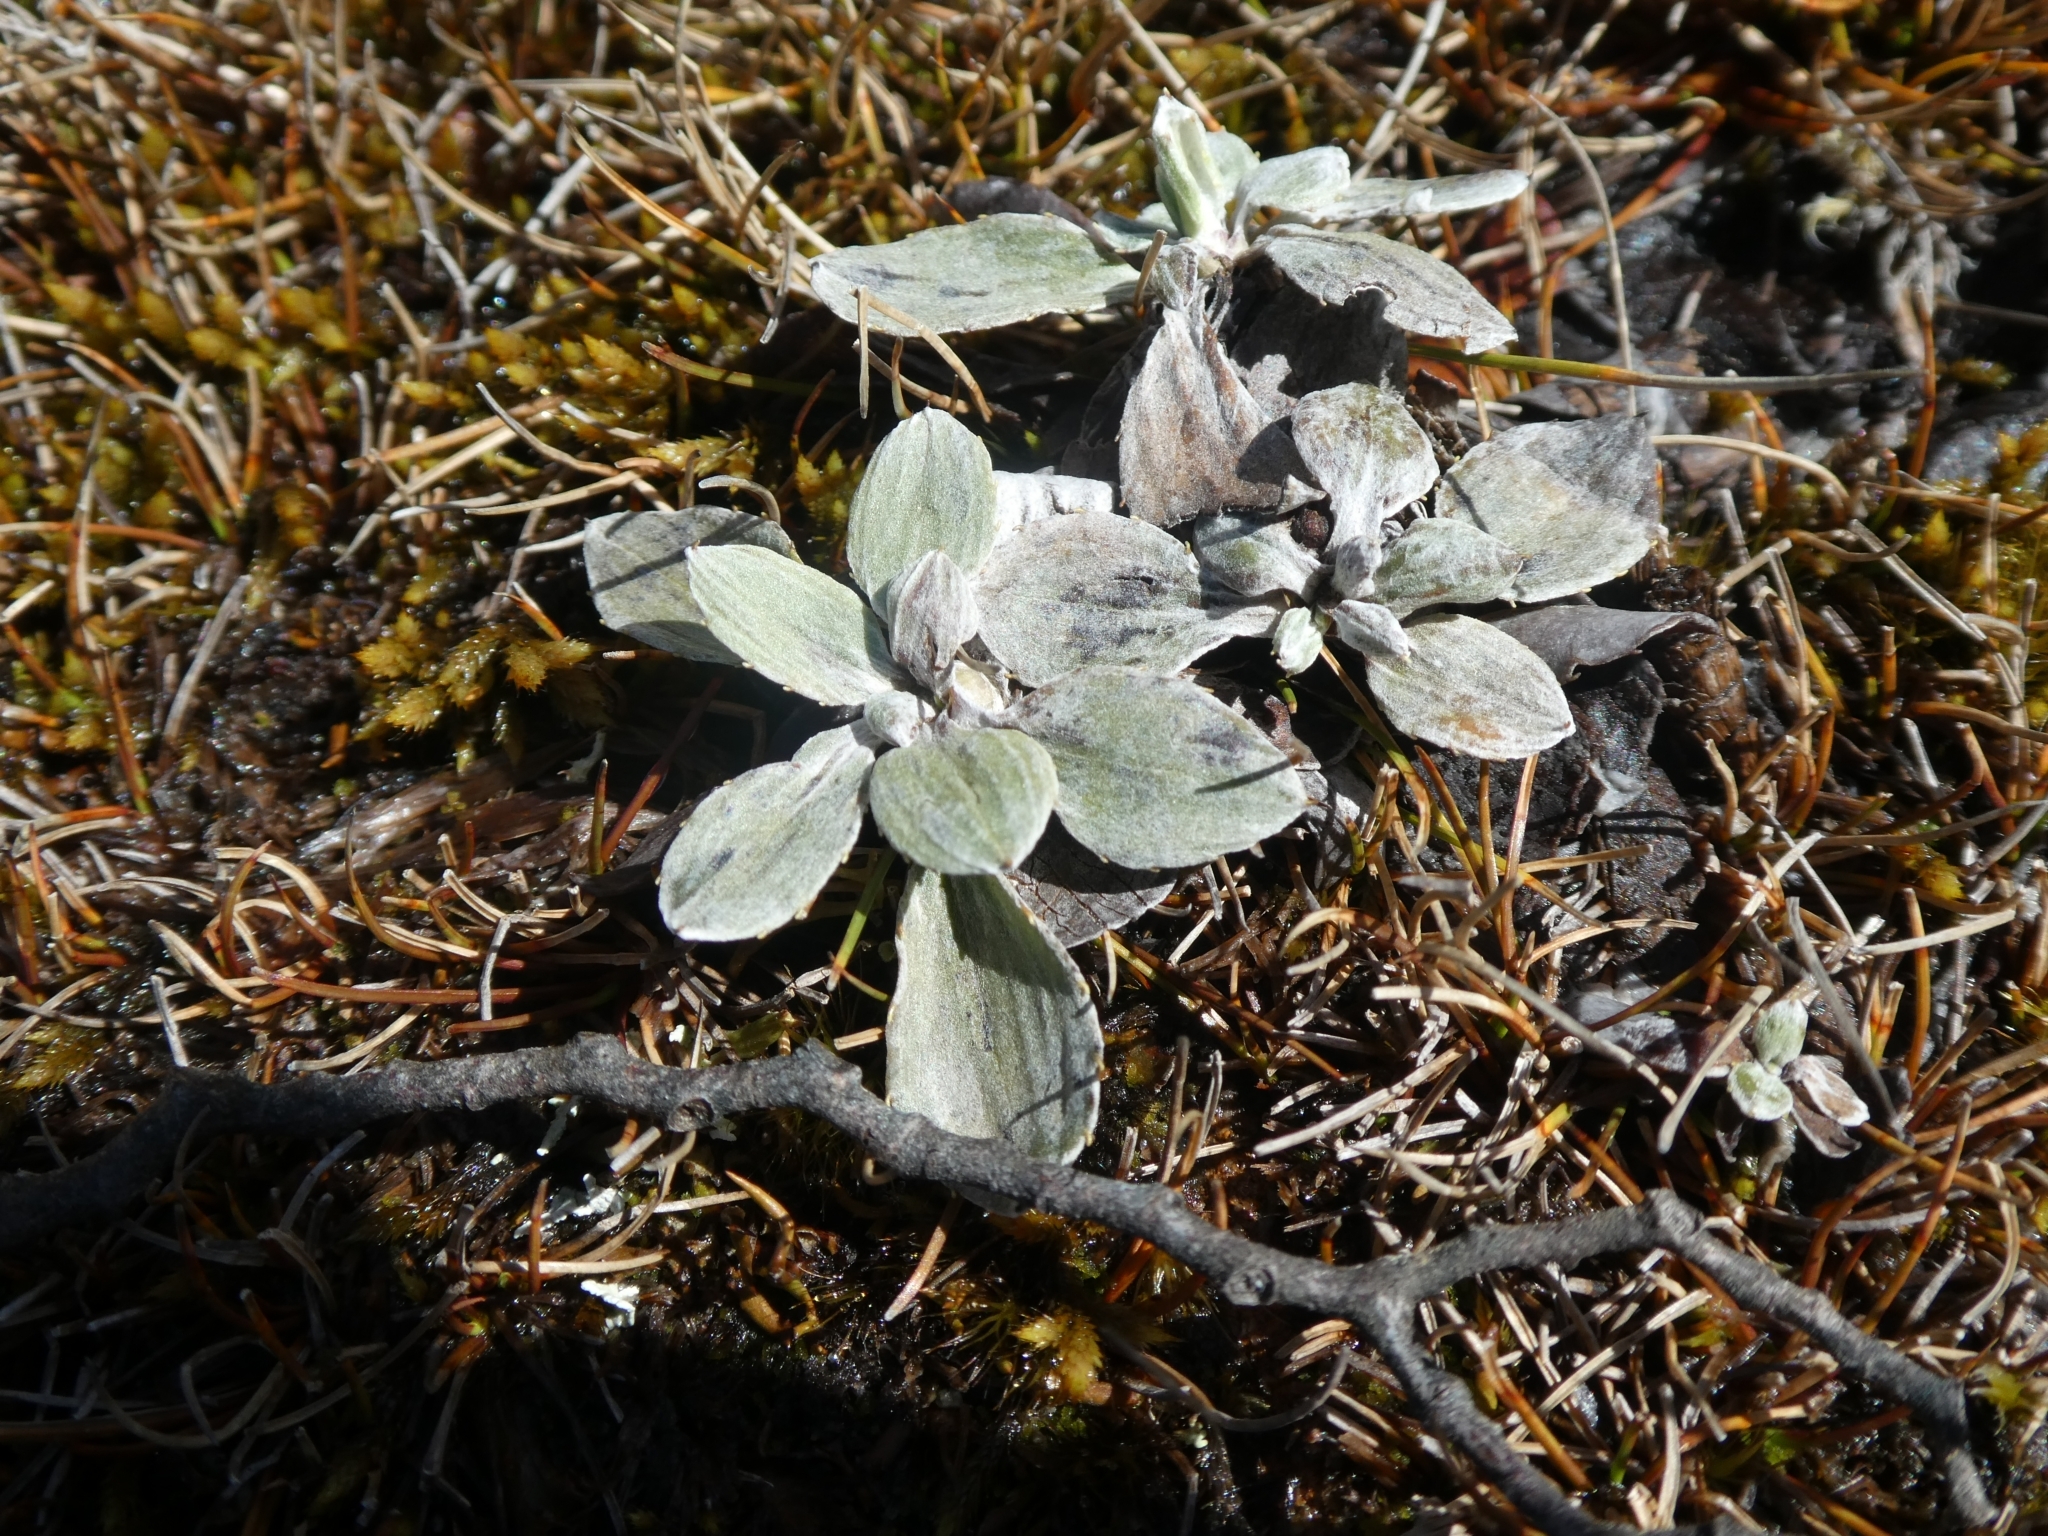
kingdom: Plantae
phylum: Tracheophyta
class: Magnoliopsida
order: Asterales
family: Asteraceae
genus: Celmisia
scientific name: Celmisia discolor
